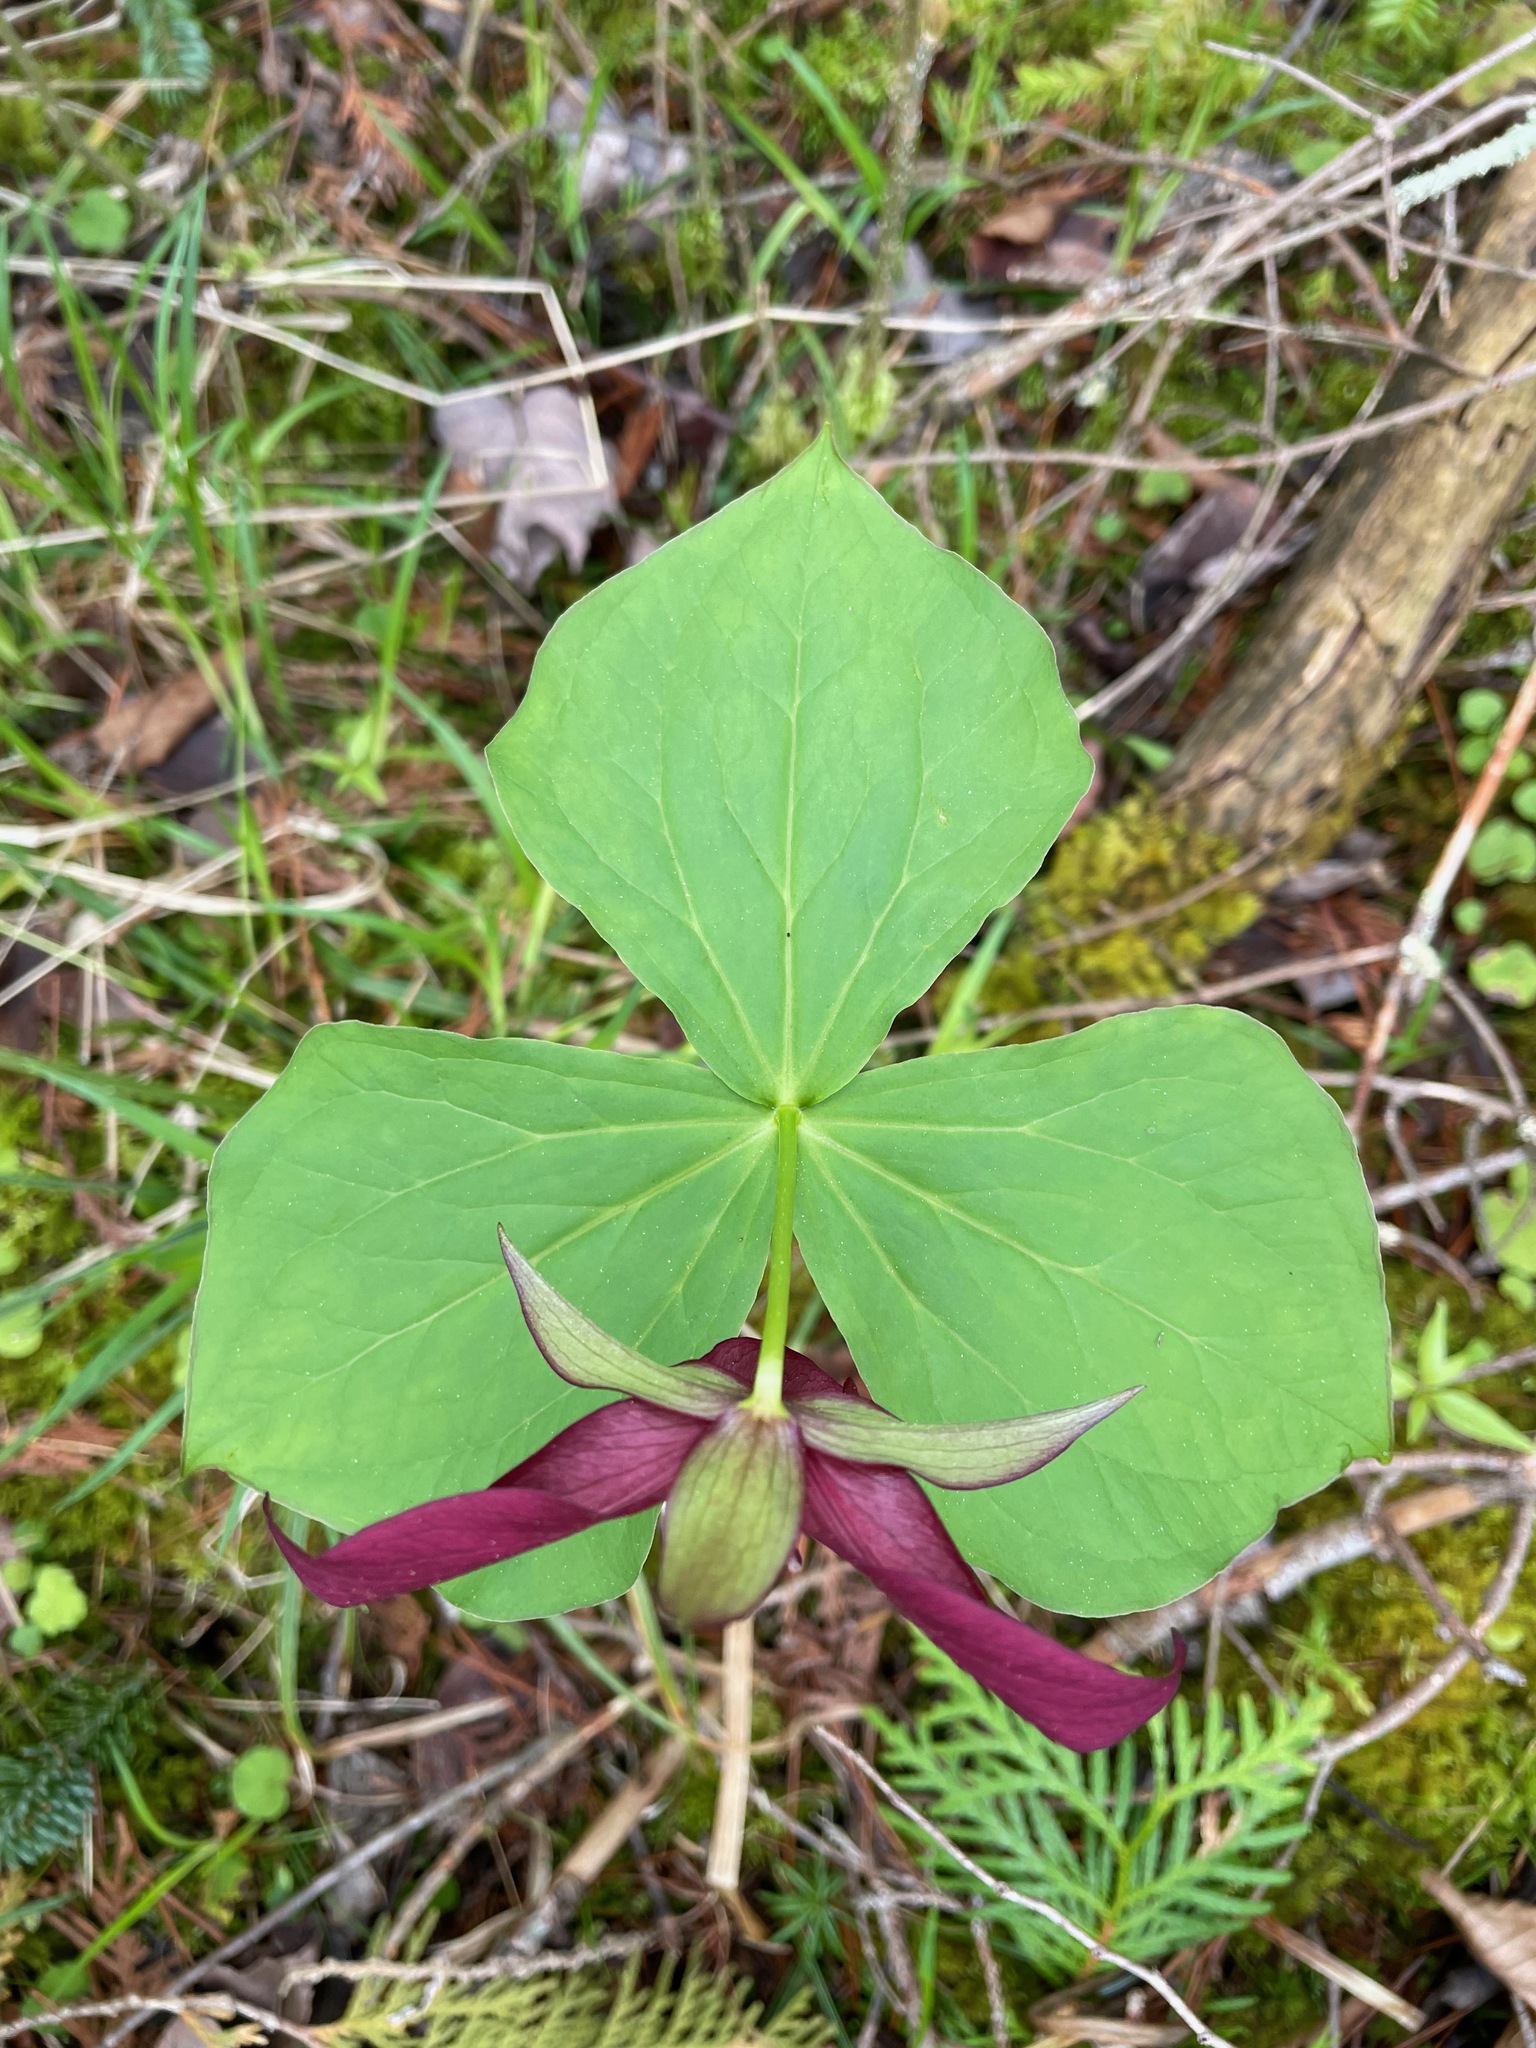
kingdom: Plantae
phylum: Tracheophyta
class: Liliopsida
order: Liliales
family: Melanthiaceae
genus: Trillium
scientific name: Trillium erectum
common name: Purple trillium
